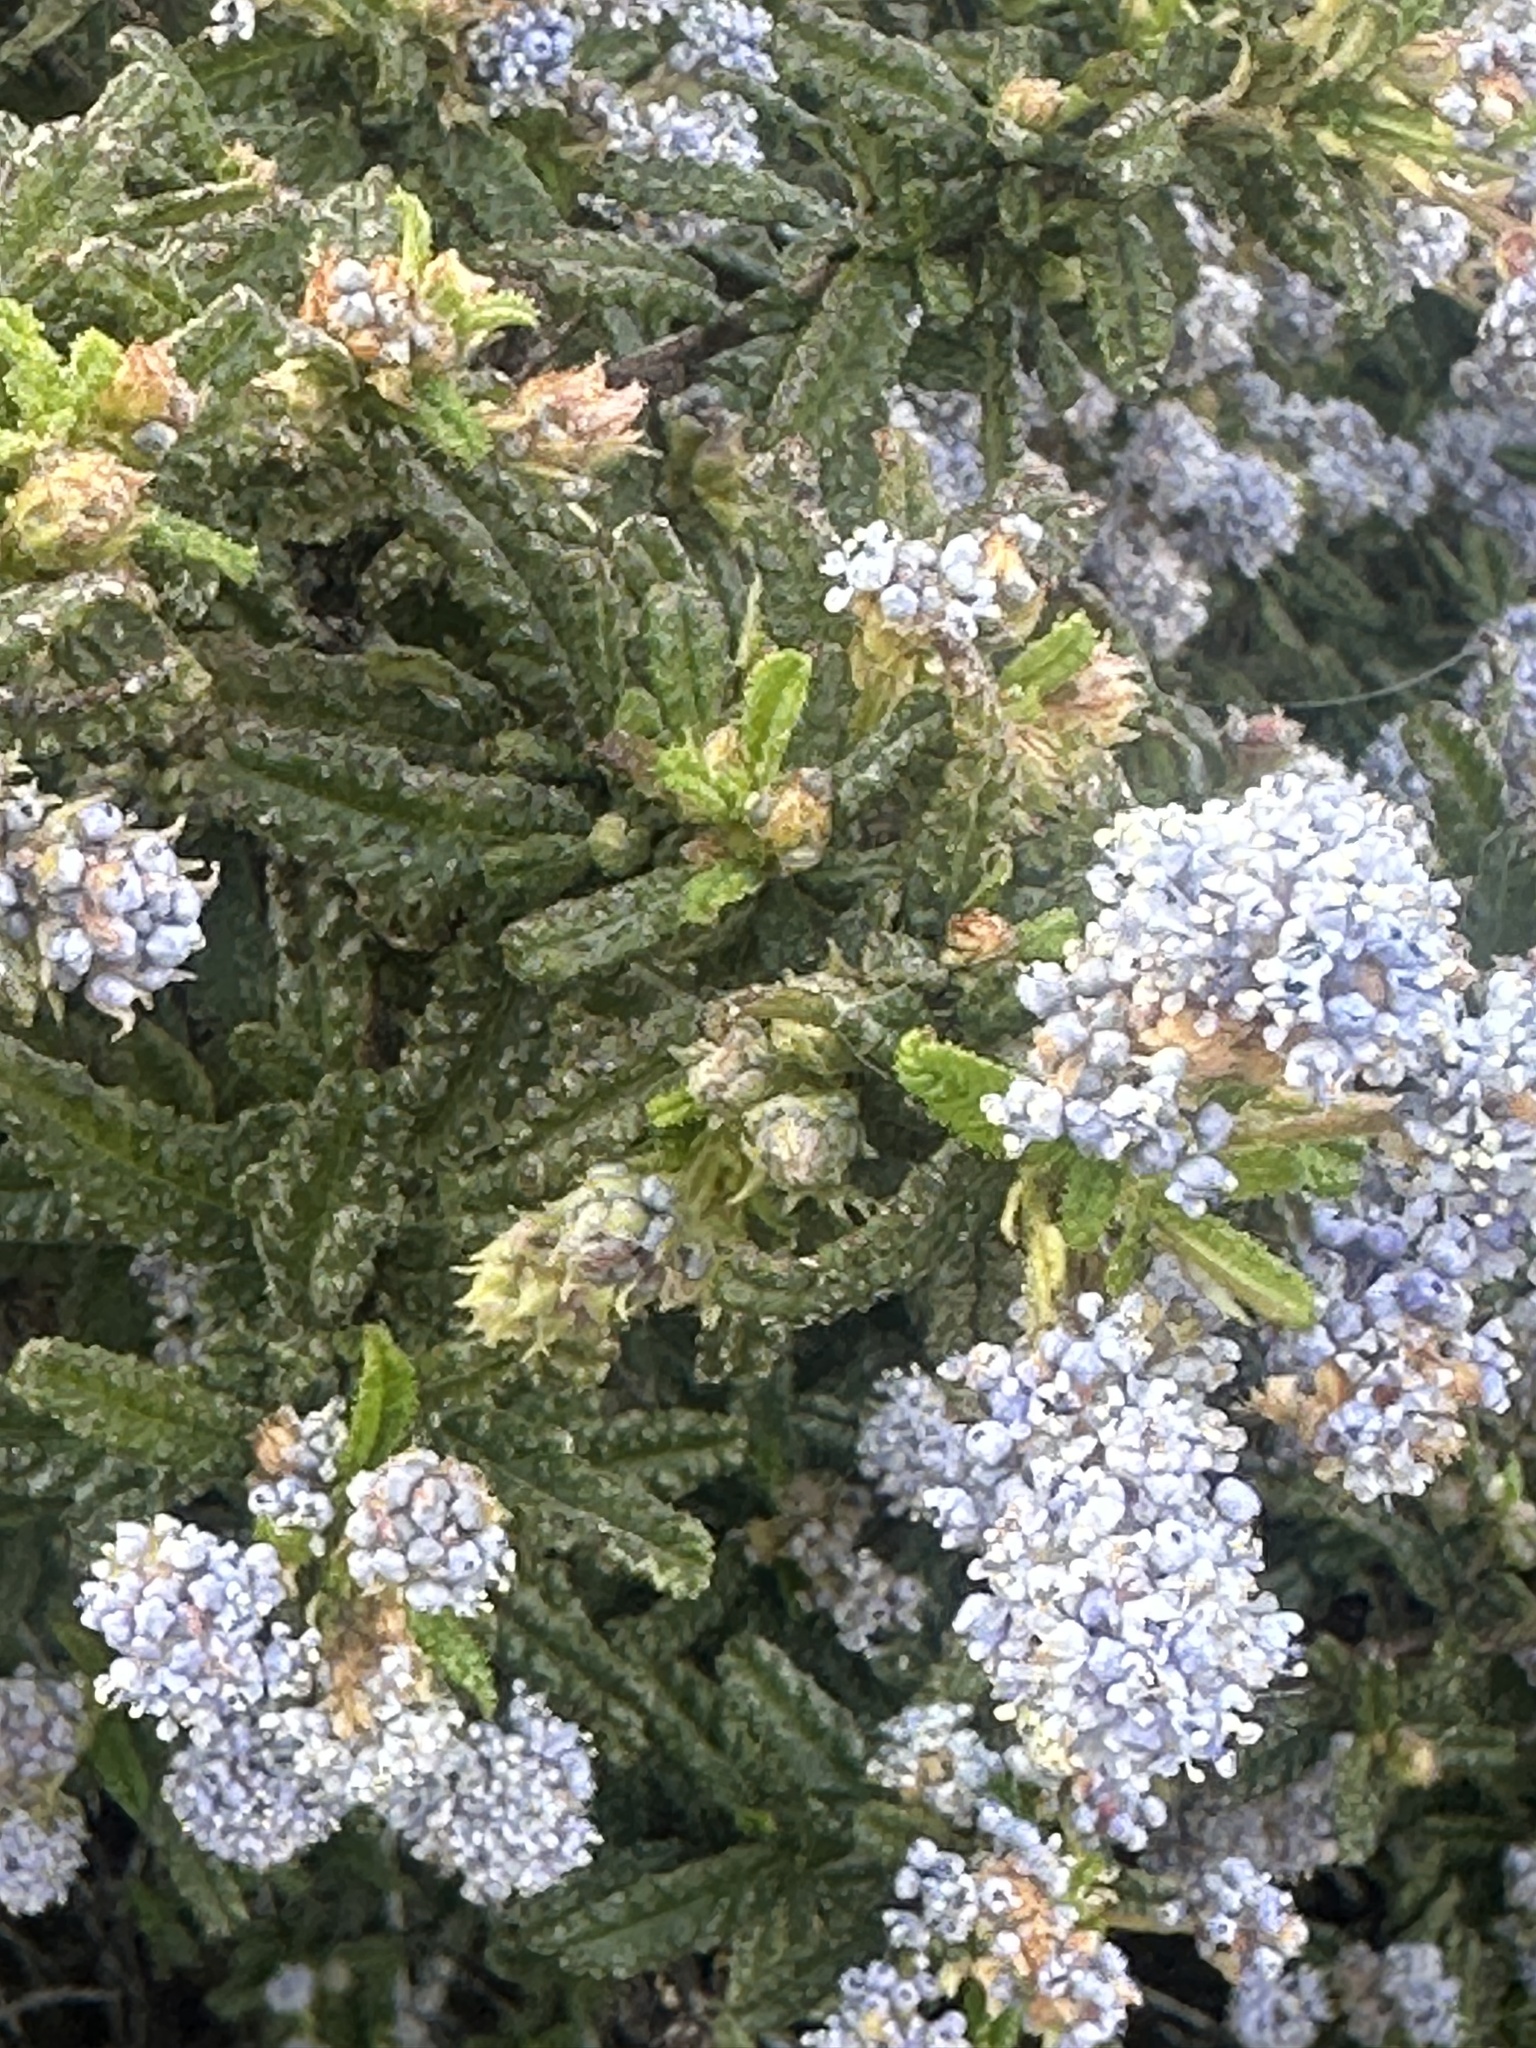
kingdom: Plantae
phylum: Tracheophyta
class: Magnoliopsida
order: Rosales
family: Rhamnaceae
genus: Ceanothus
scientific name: Ceanothus papillosus
